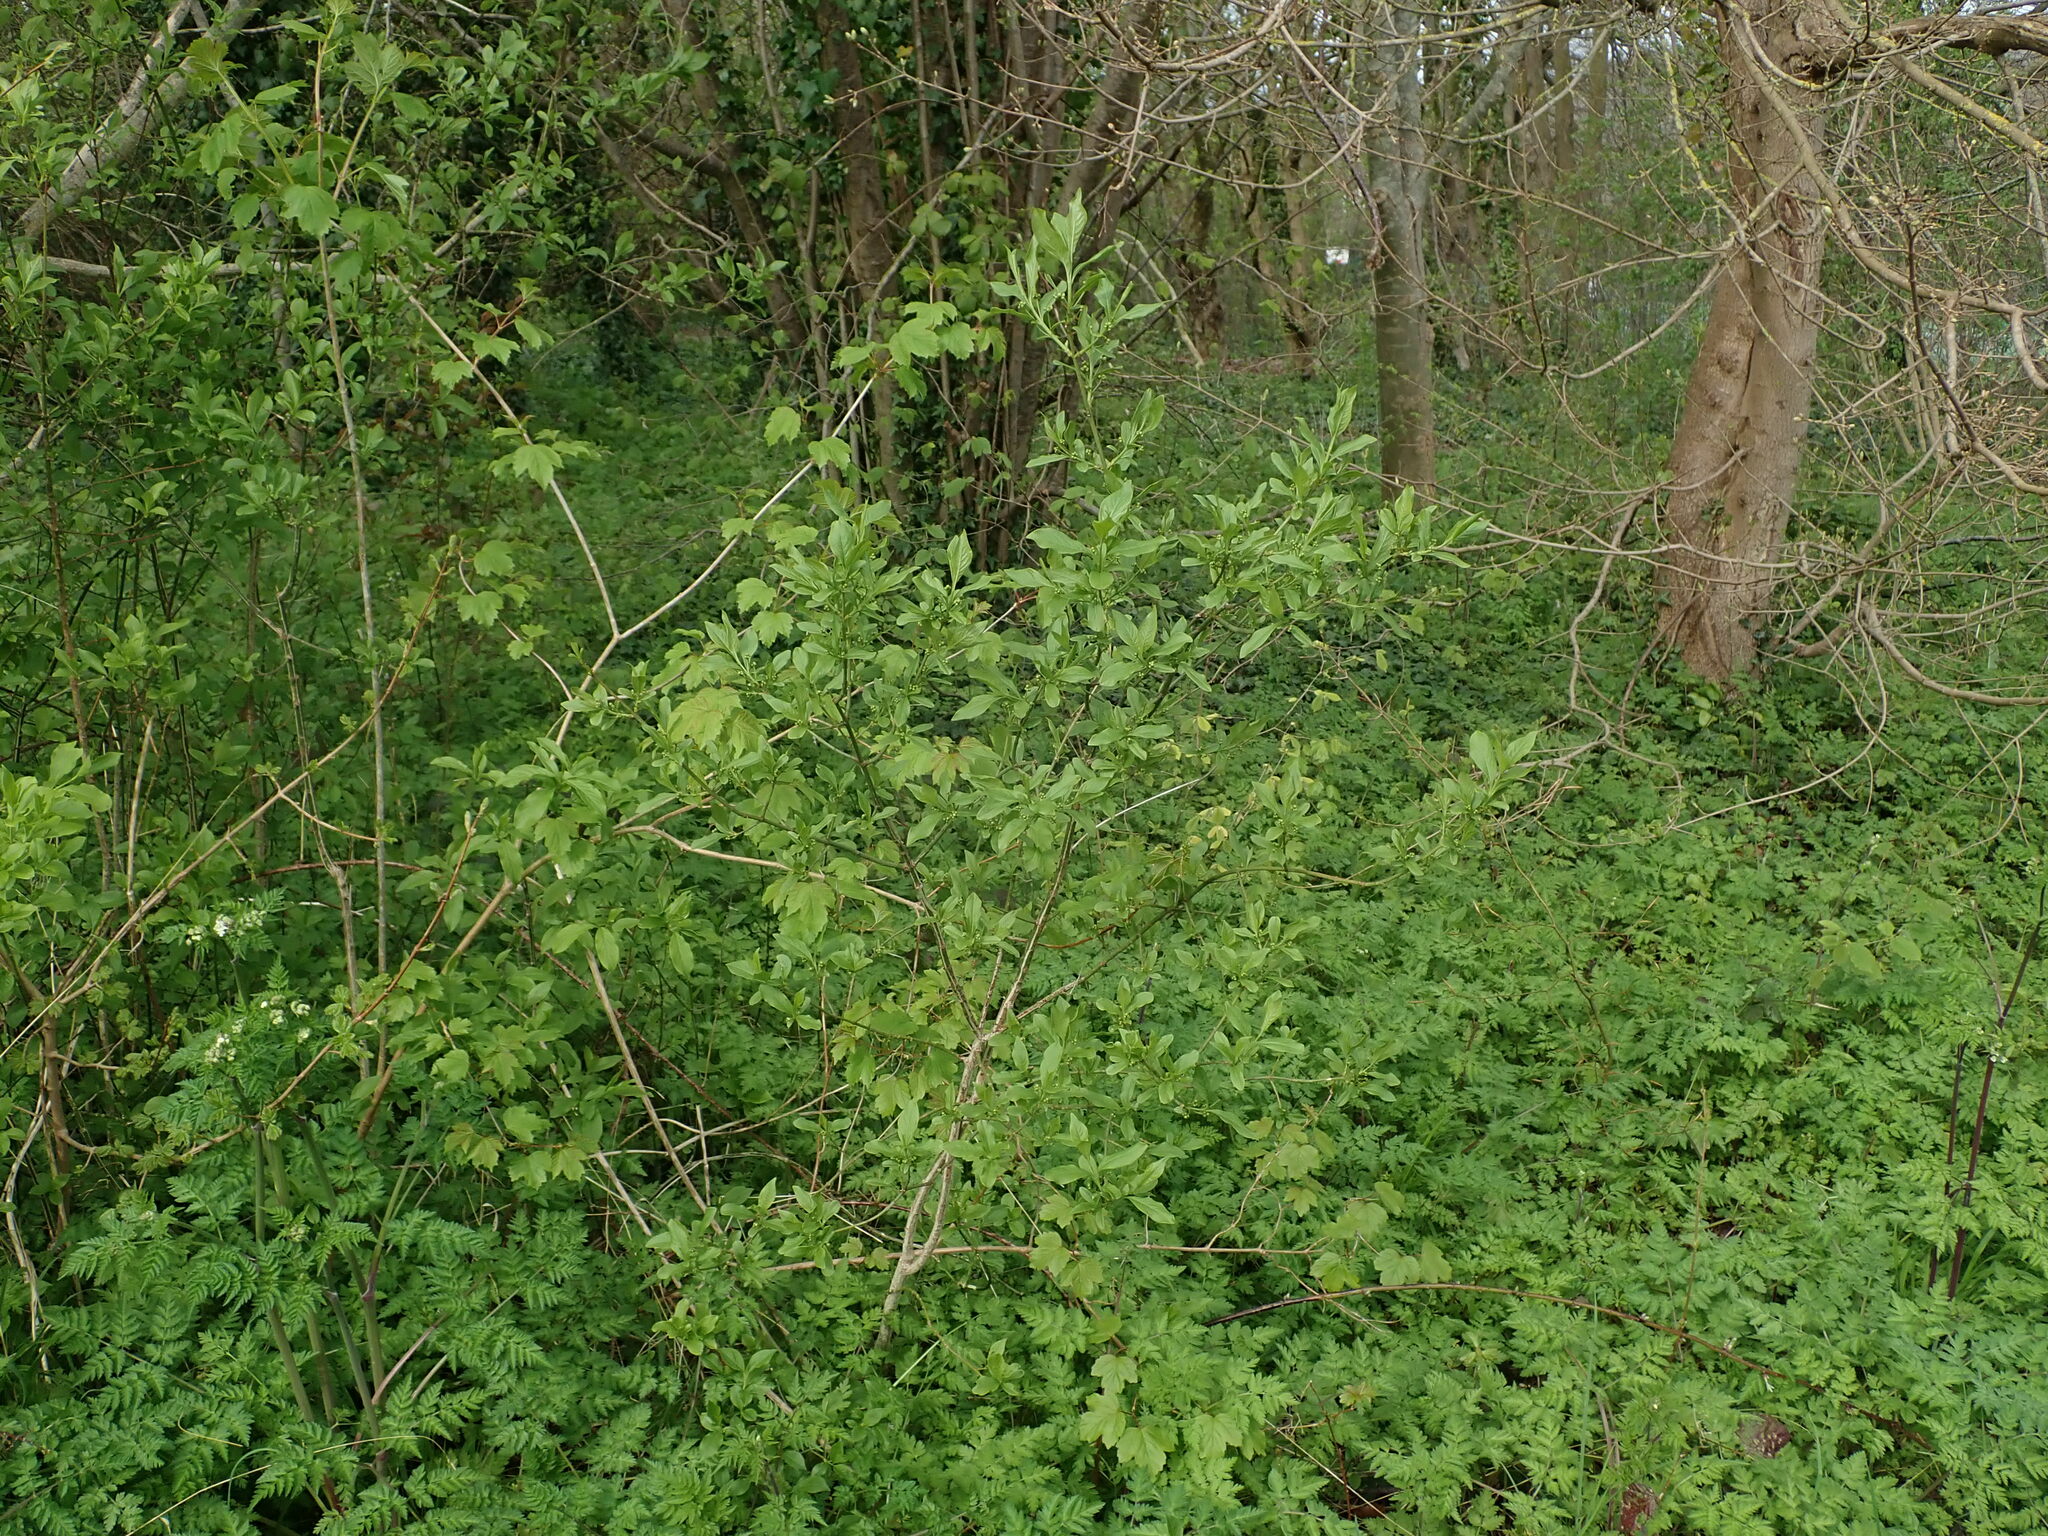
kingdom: Plantae
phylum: Tracheophyta
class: Magnoliopsida
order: Celastrales
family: Celastraceae
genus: Euonymus
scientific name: Euonymus europaeus
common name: Spindle
